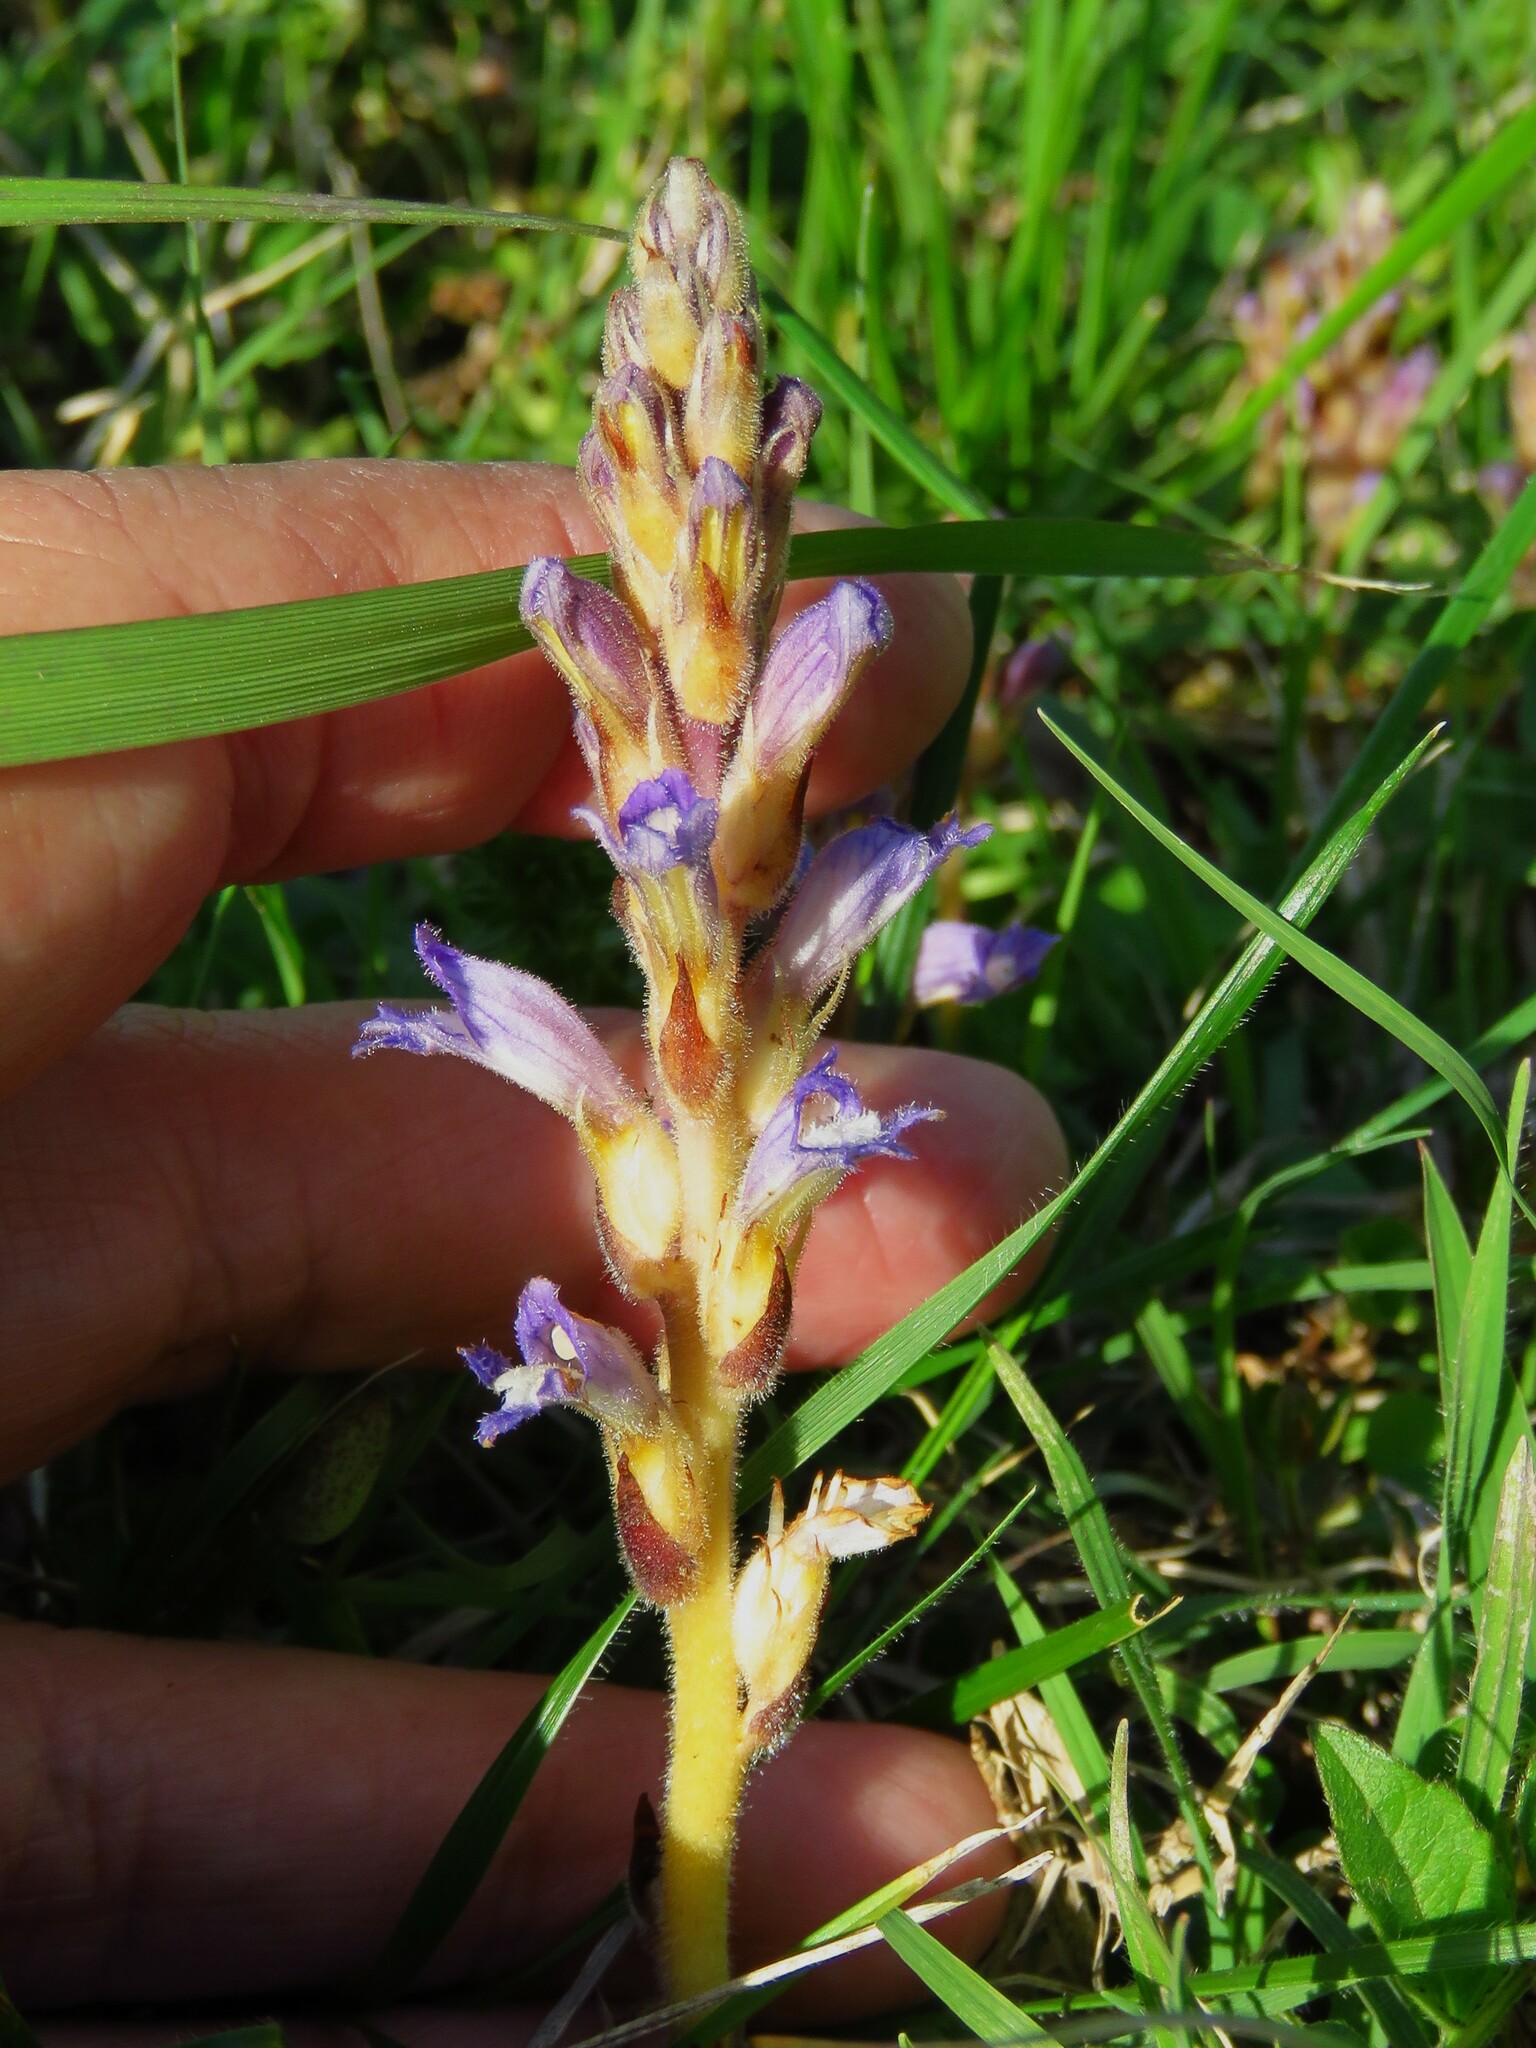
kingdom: Plantae
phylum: Tracheophyta
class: Magnoliopsida
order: Lamiales
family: Orobanchaceae
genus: Phelipanche
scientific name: Phelipanche mutelii
